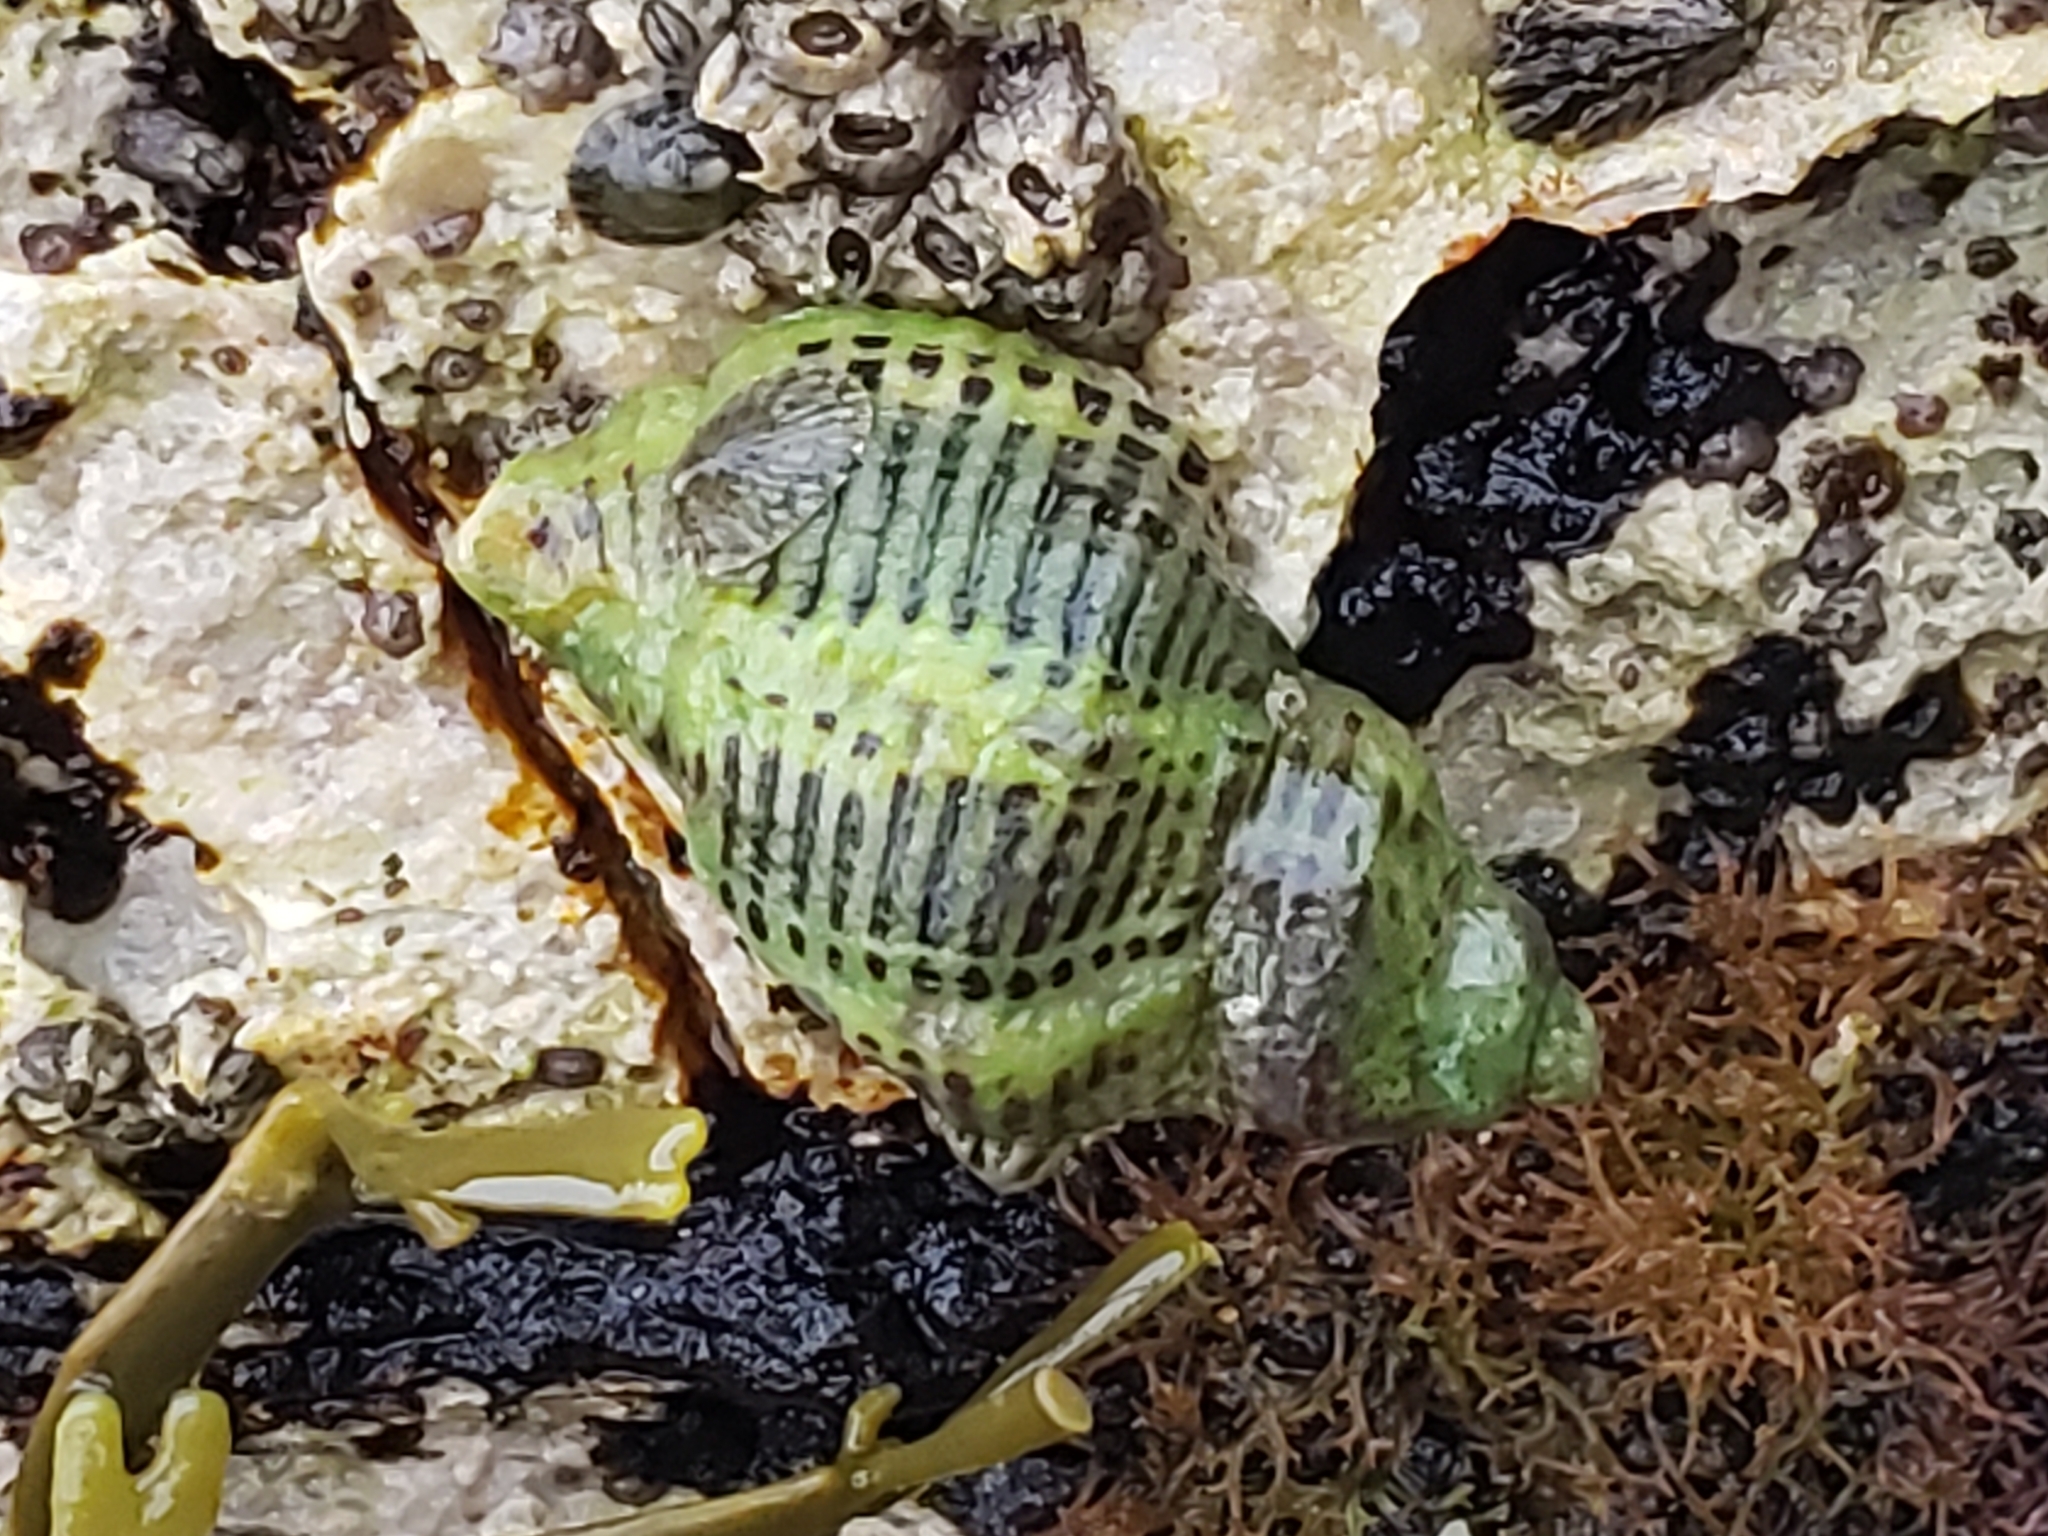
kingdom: Animalia
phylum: Mollusca
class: Gastropoda
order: Neogastropoda
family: Muricidae
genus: Acanthinucella
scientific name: Acanthinucella spirata
